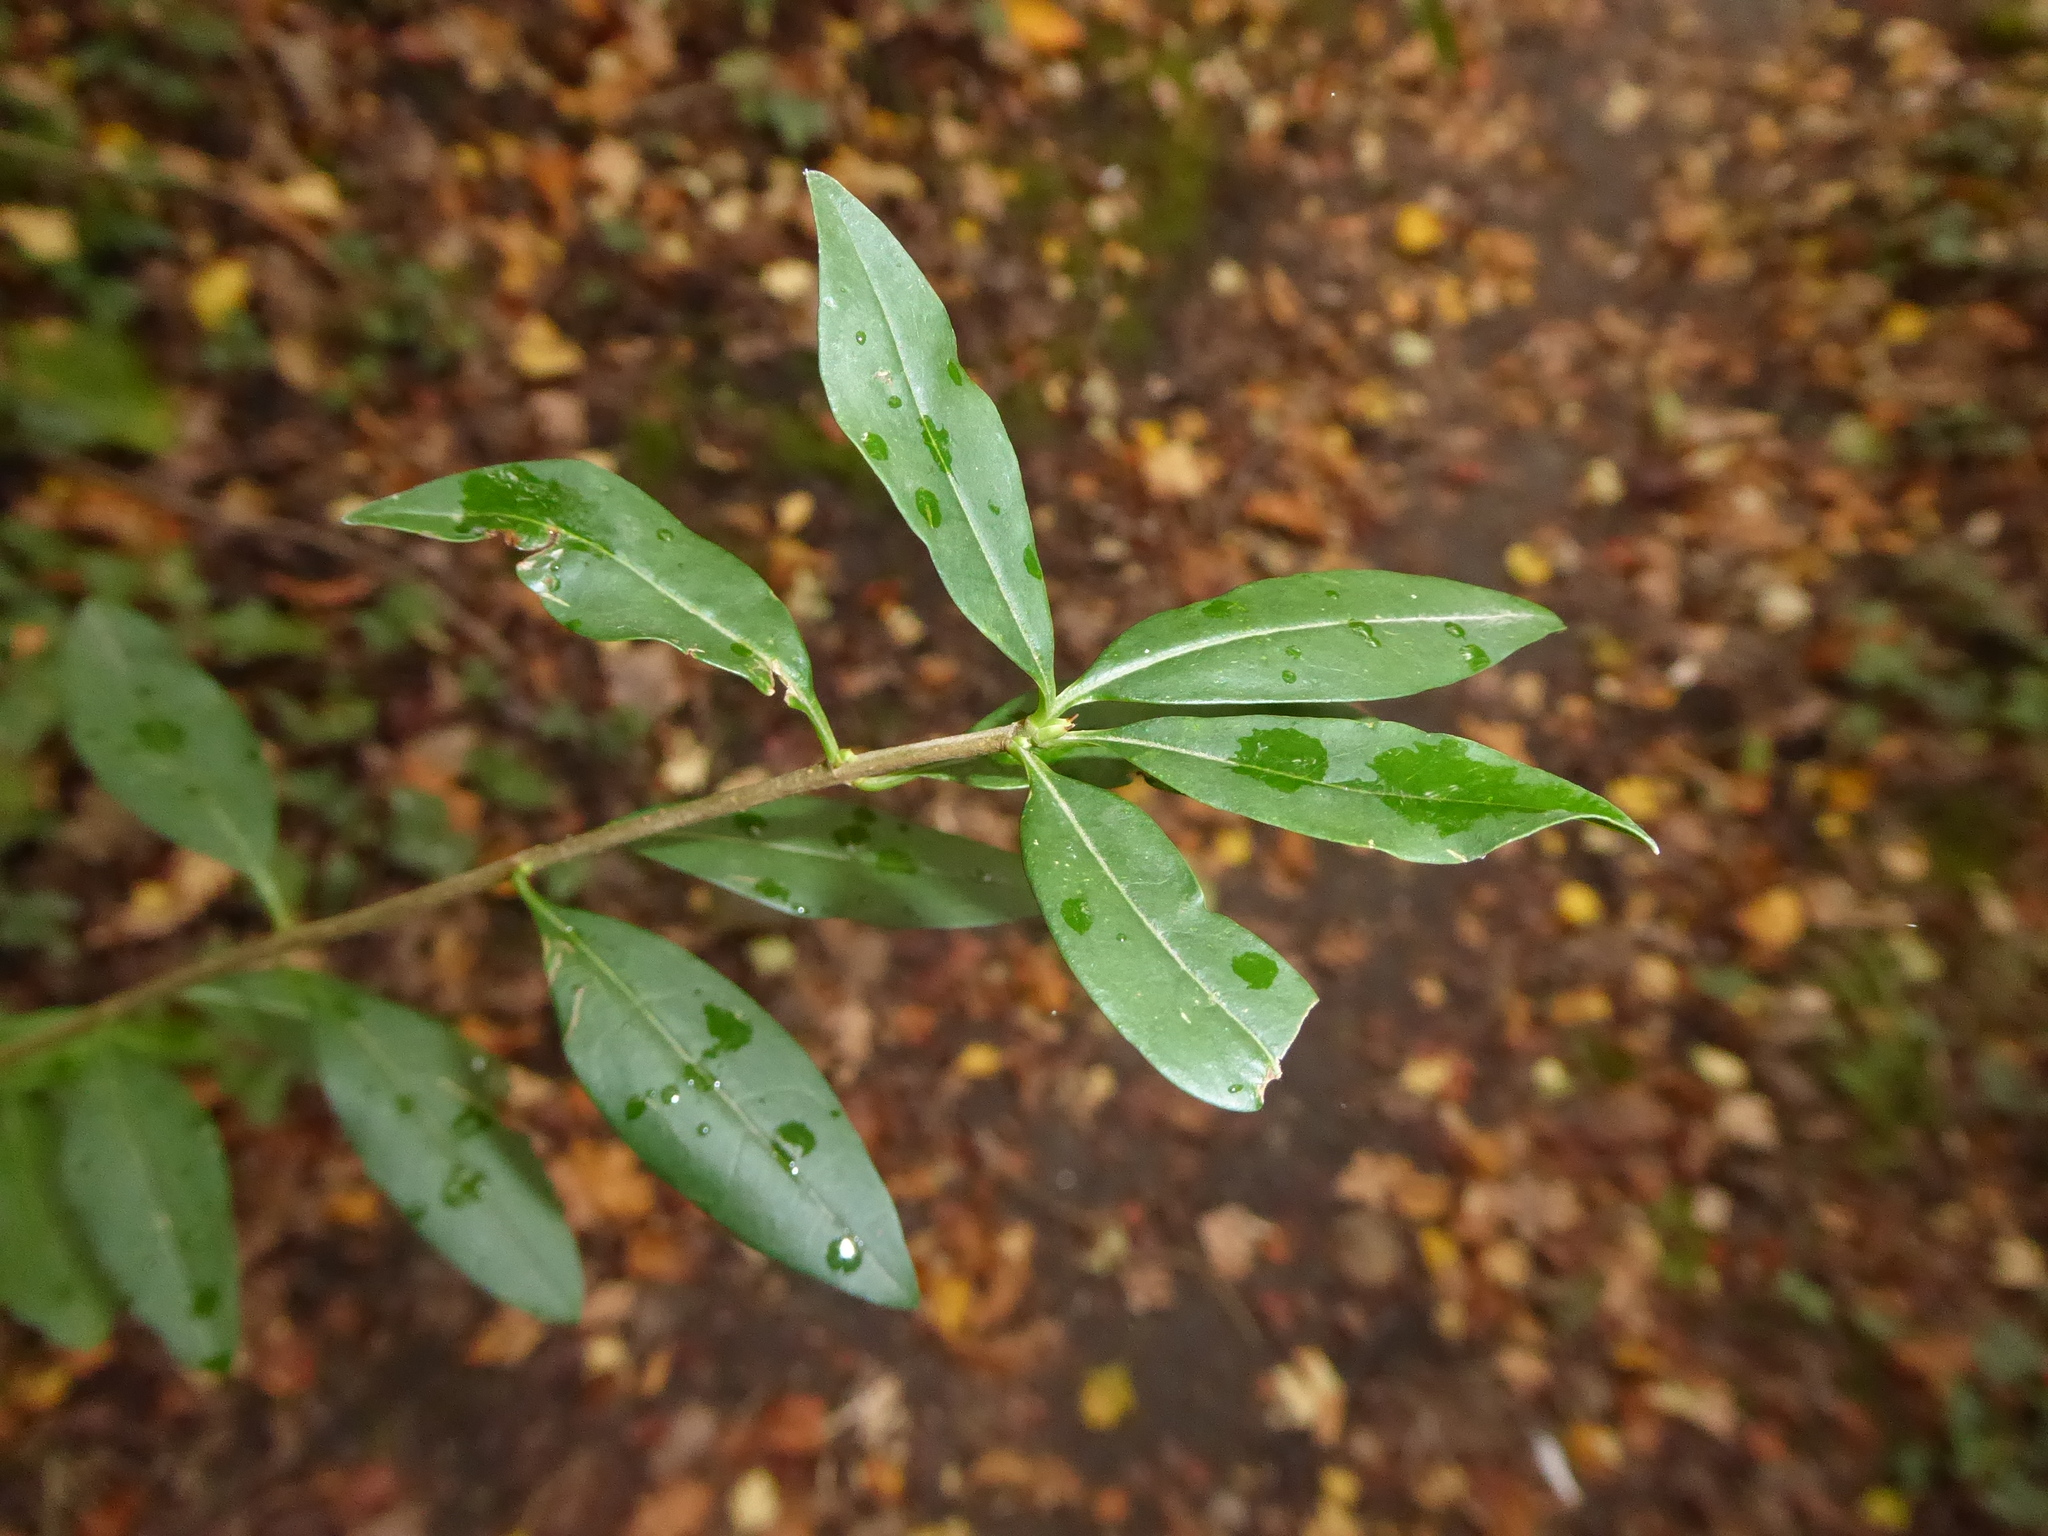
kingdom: Plantae
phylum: Tracheophyta
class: Magnoliopsida
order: Lamiales
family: Oleaceae
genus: Ligustrum
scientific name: Ligustrum vulgare
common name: Wild privet
